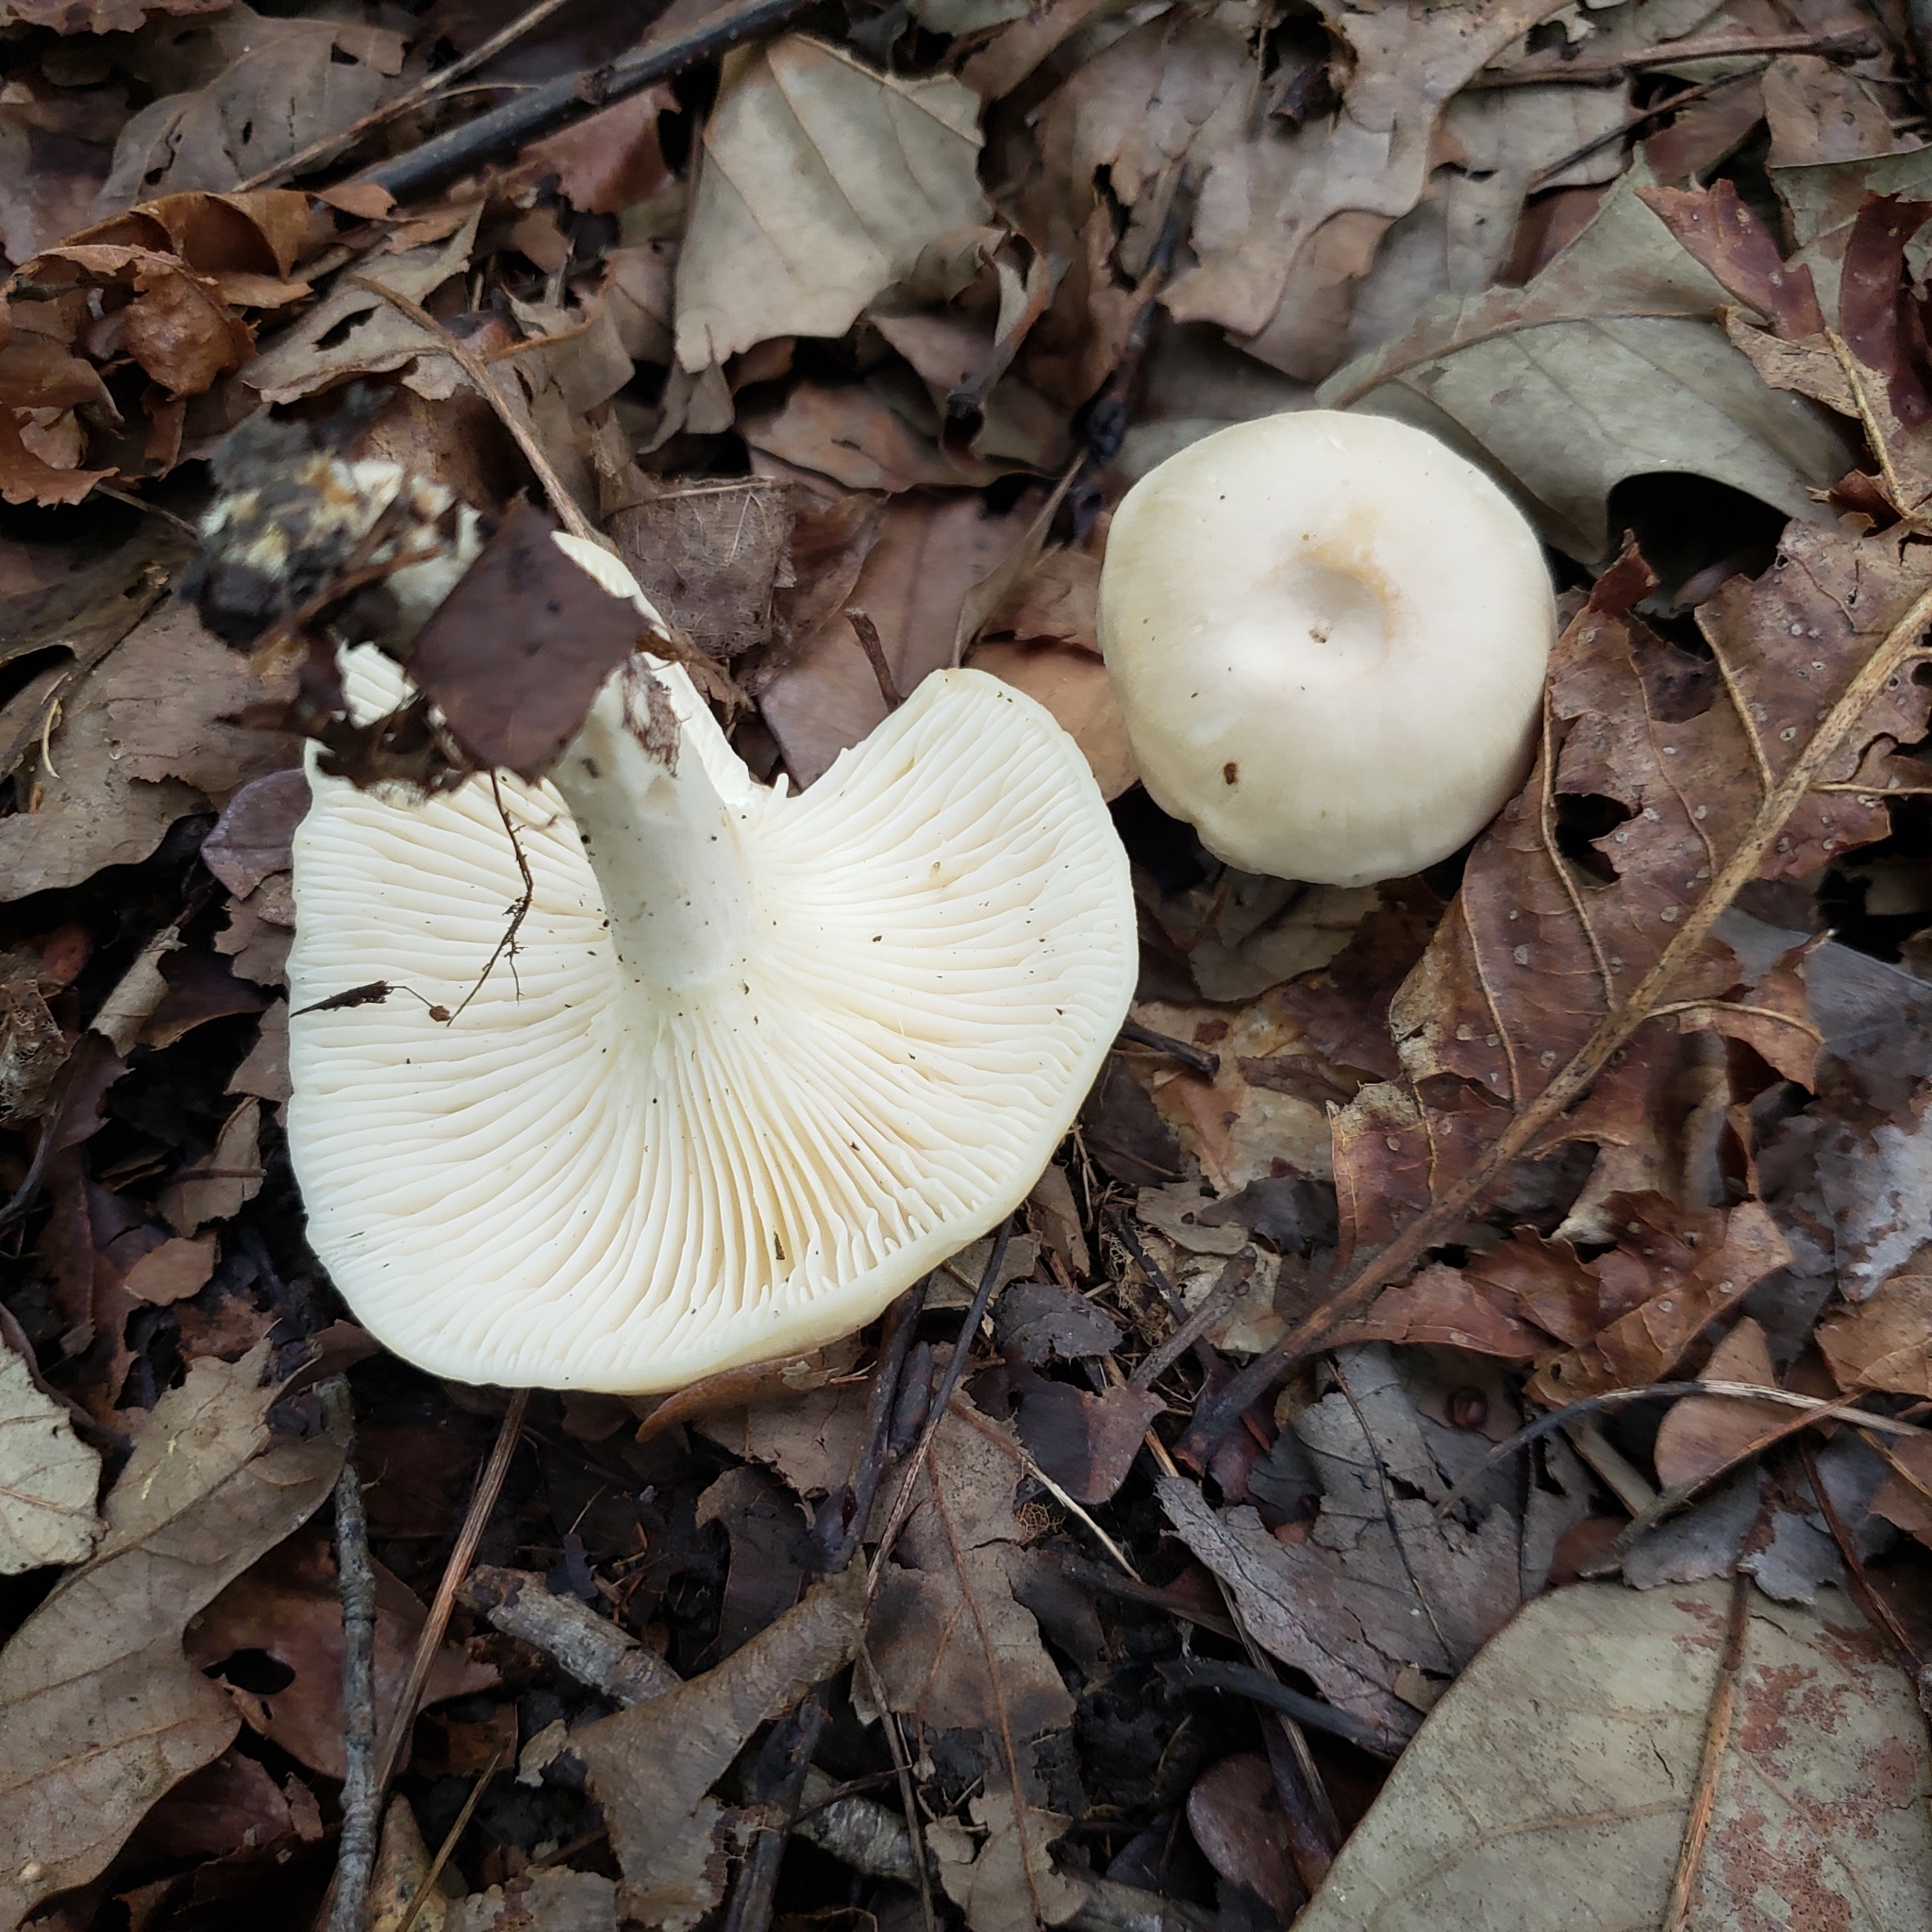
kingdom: Fungi
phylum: Basidiomycota
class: Agaricomycetes
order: Agaricales
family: Hygrophoraceae
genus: Hygrocybe
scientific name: Hygrocybe angustifolia
